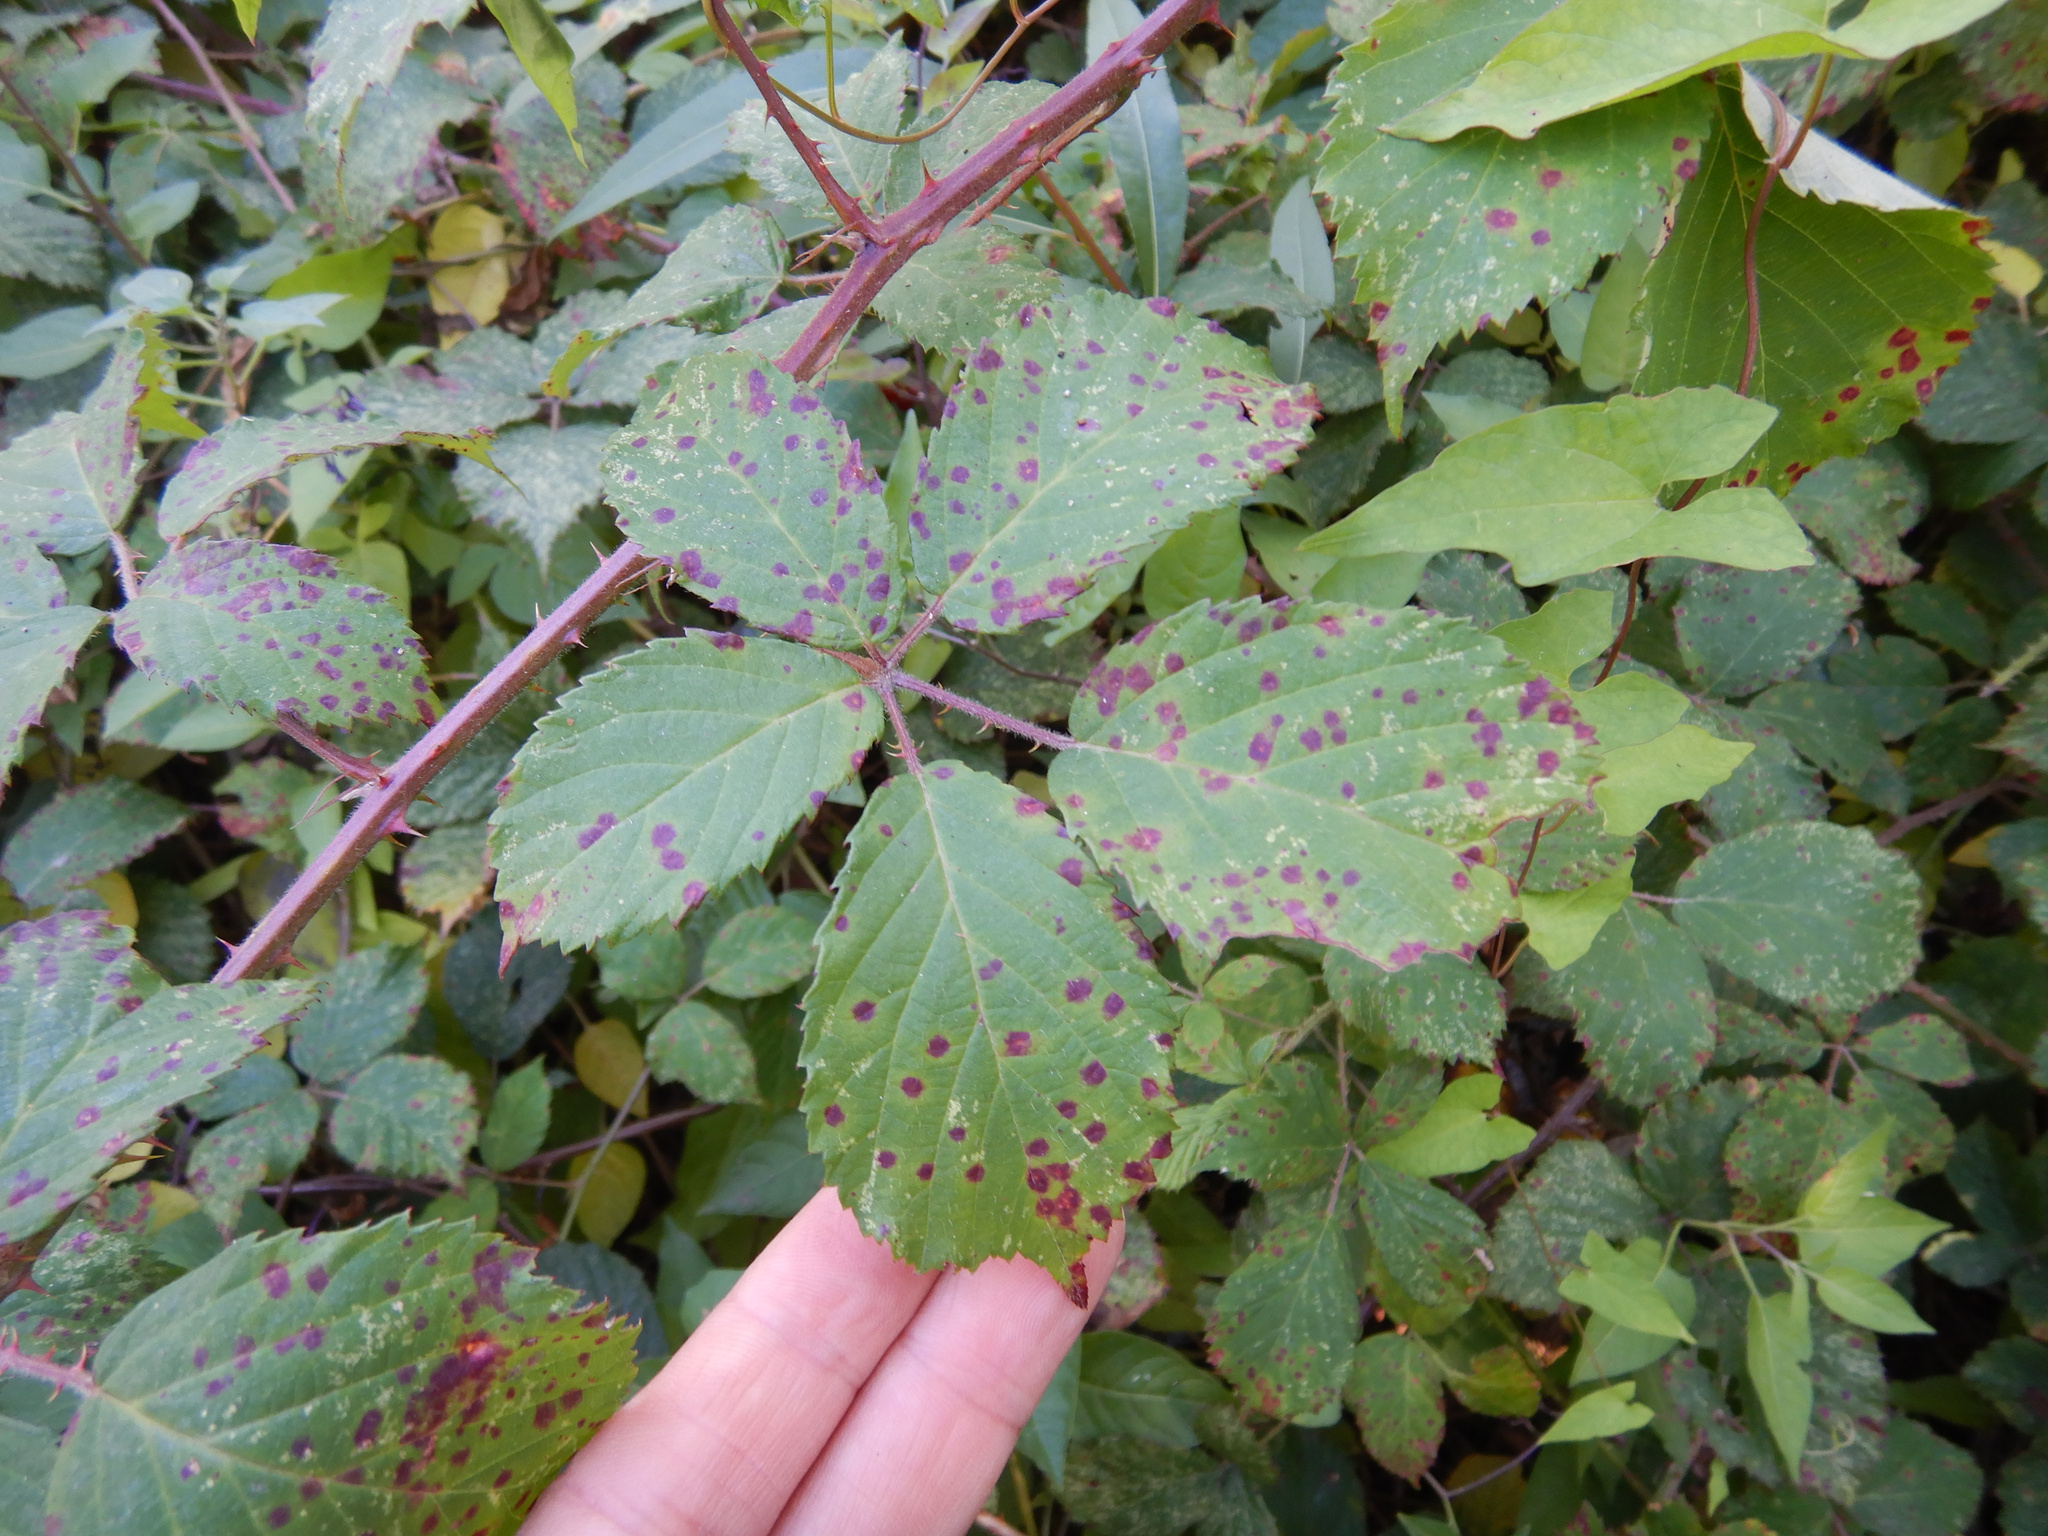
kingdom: Fungi
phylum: Basidiomycota
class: Pucciniomycetes
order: Pucciniales
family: Phragmidiaceae
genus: Phragmidium
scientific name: Phragmidium violaceum
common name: Violet bramble rust
